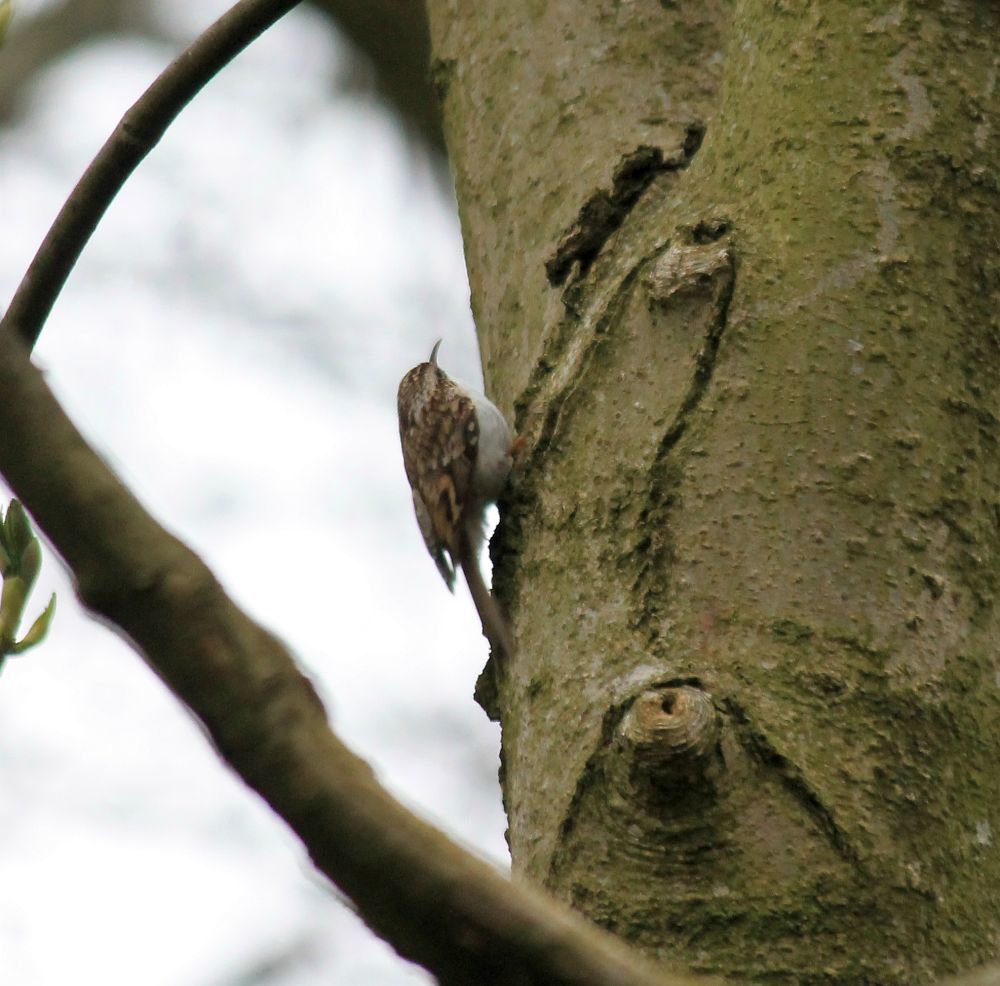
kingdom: Animalia
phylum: Chordata
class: Aves
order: Passeriformes
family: Certhiidae
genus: Certhia
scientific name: Certhia familiaris
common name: Eurasian treecreeper
